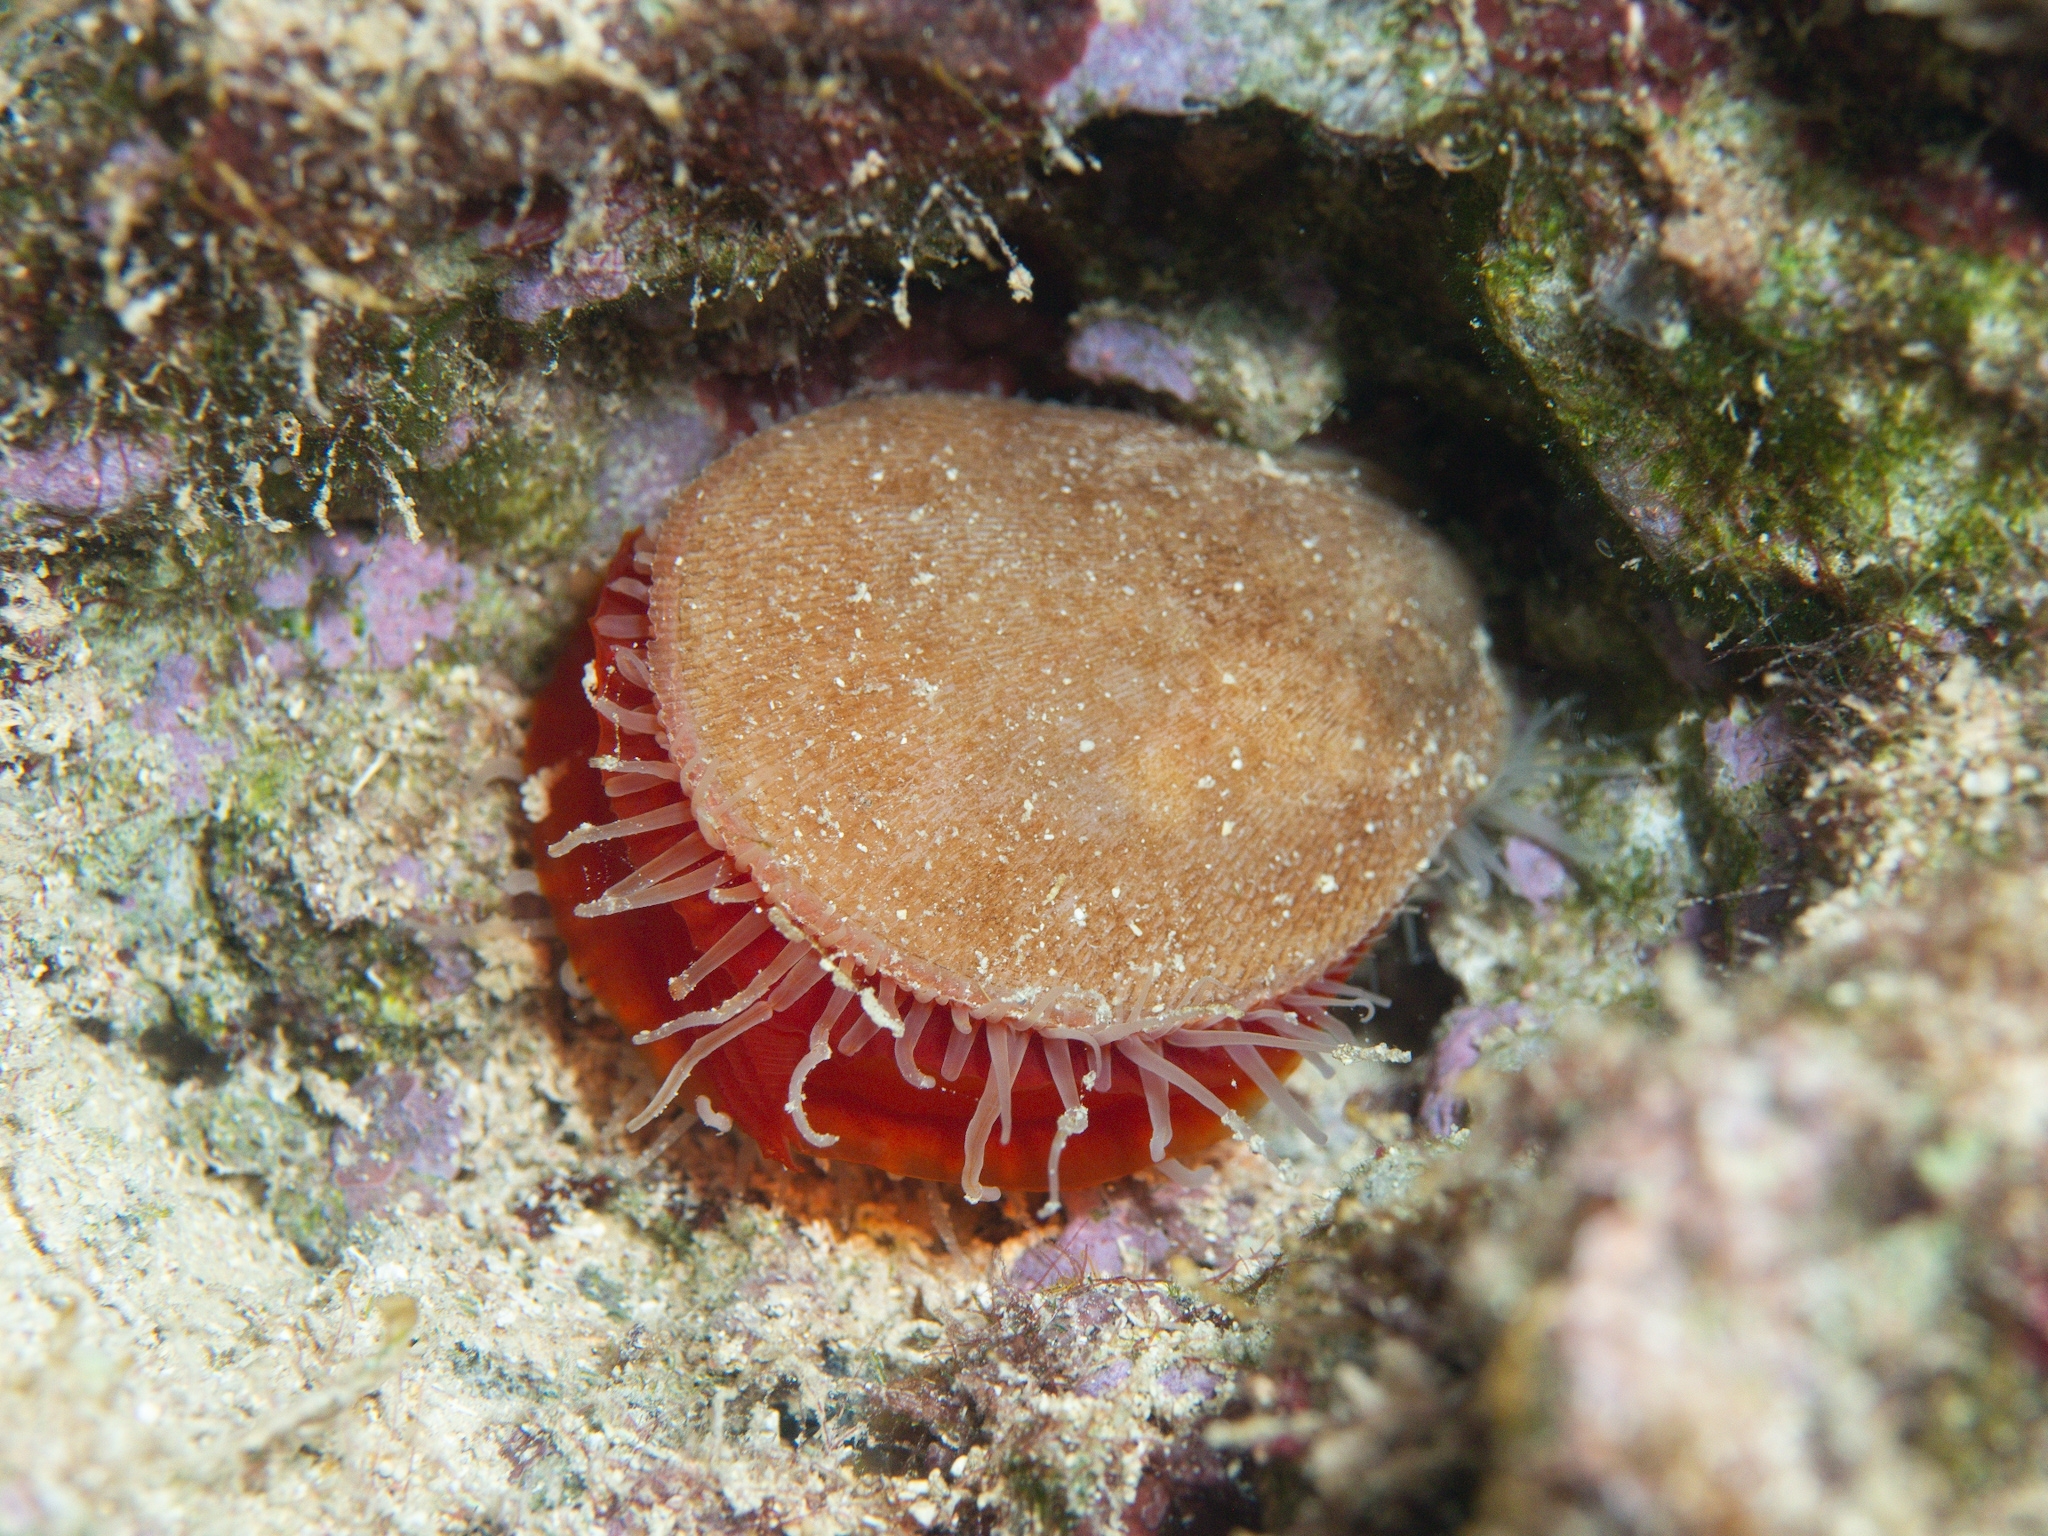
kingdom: Animalia
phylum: Mollusca
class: Bivalvia
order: Limida
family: Limidae
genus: Ctenoides
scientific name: Ctenoides scaber
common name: Rough fileclam
